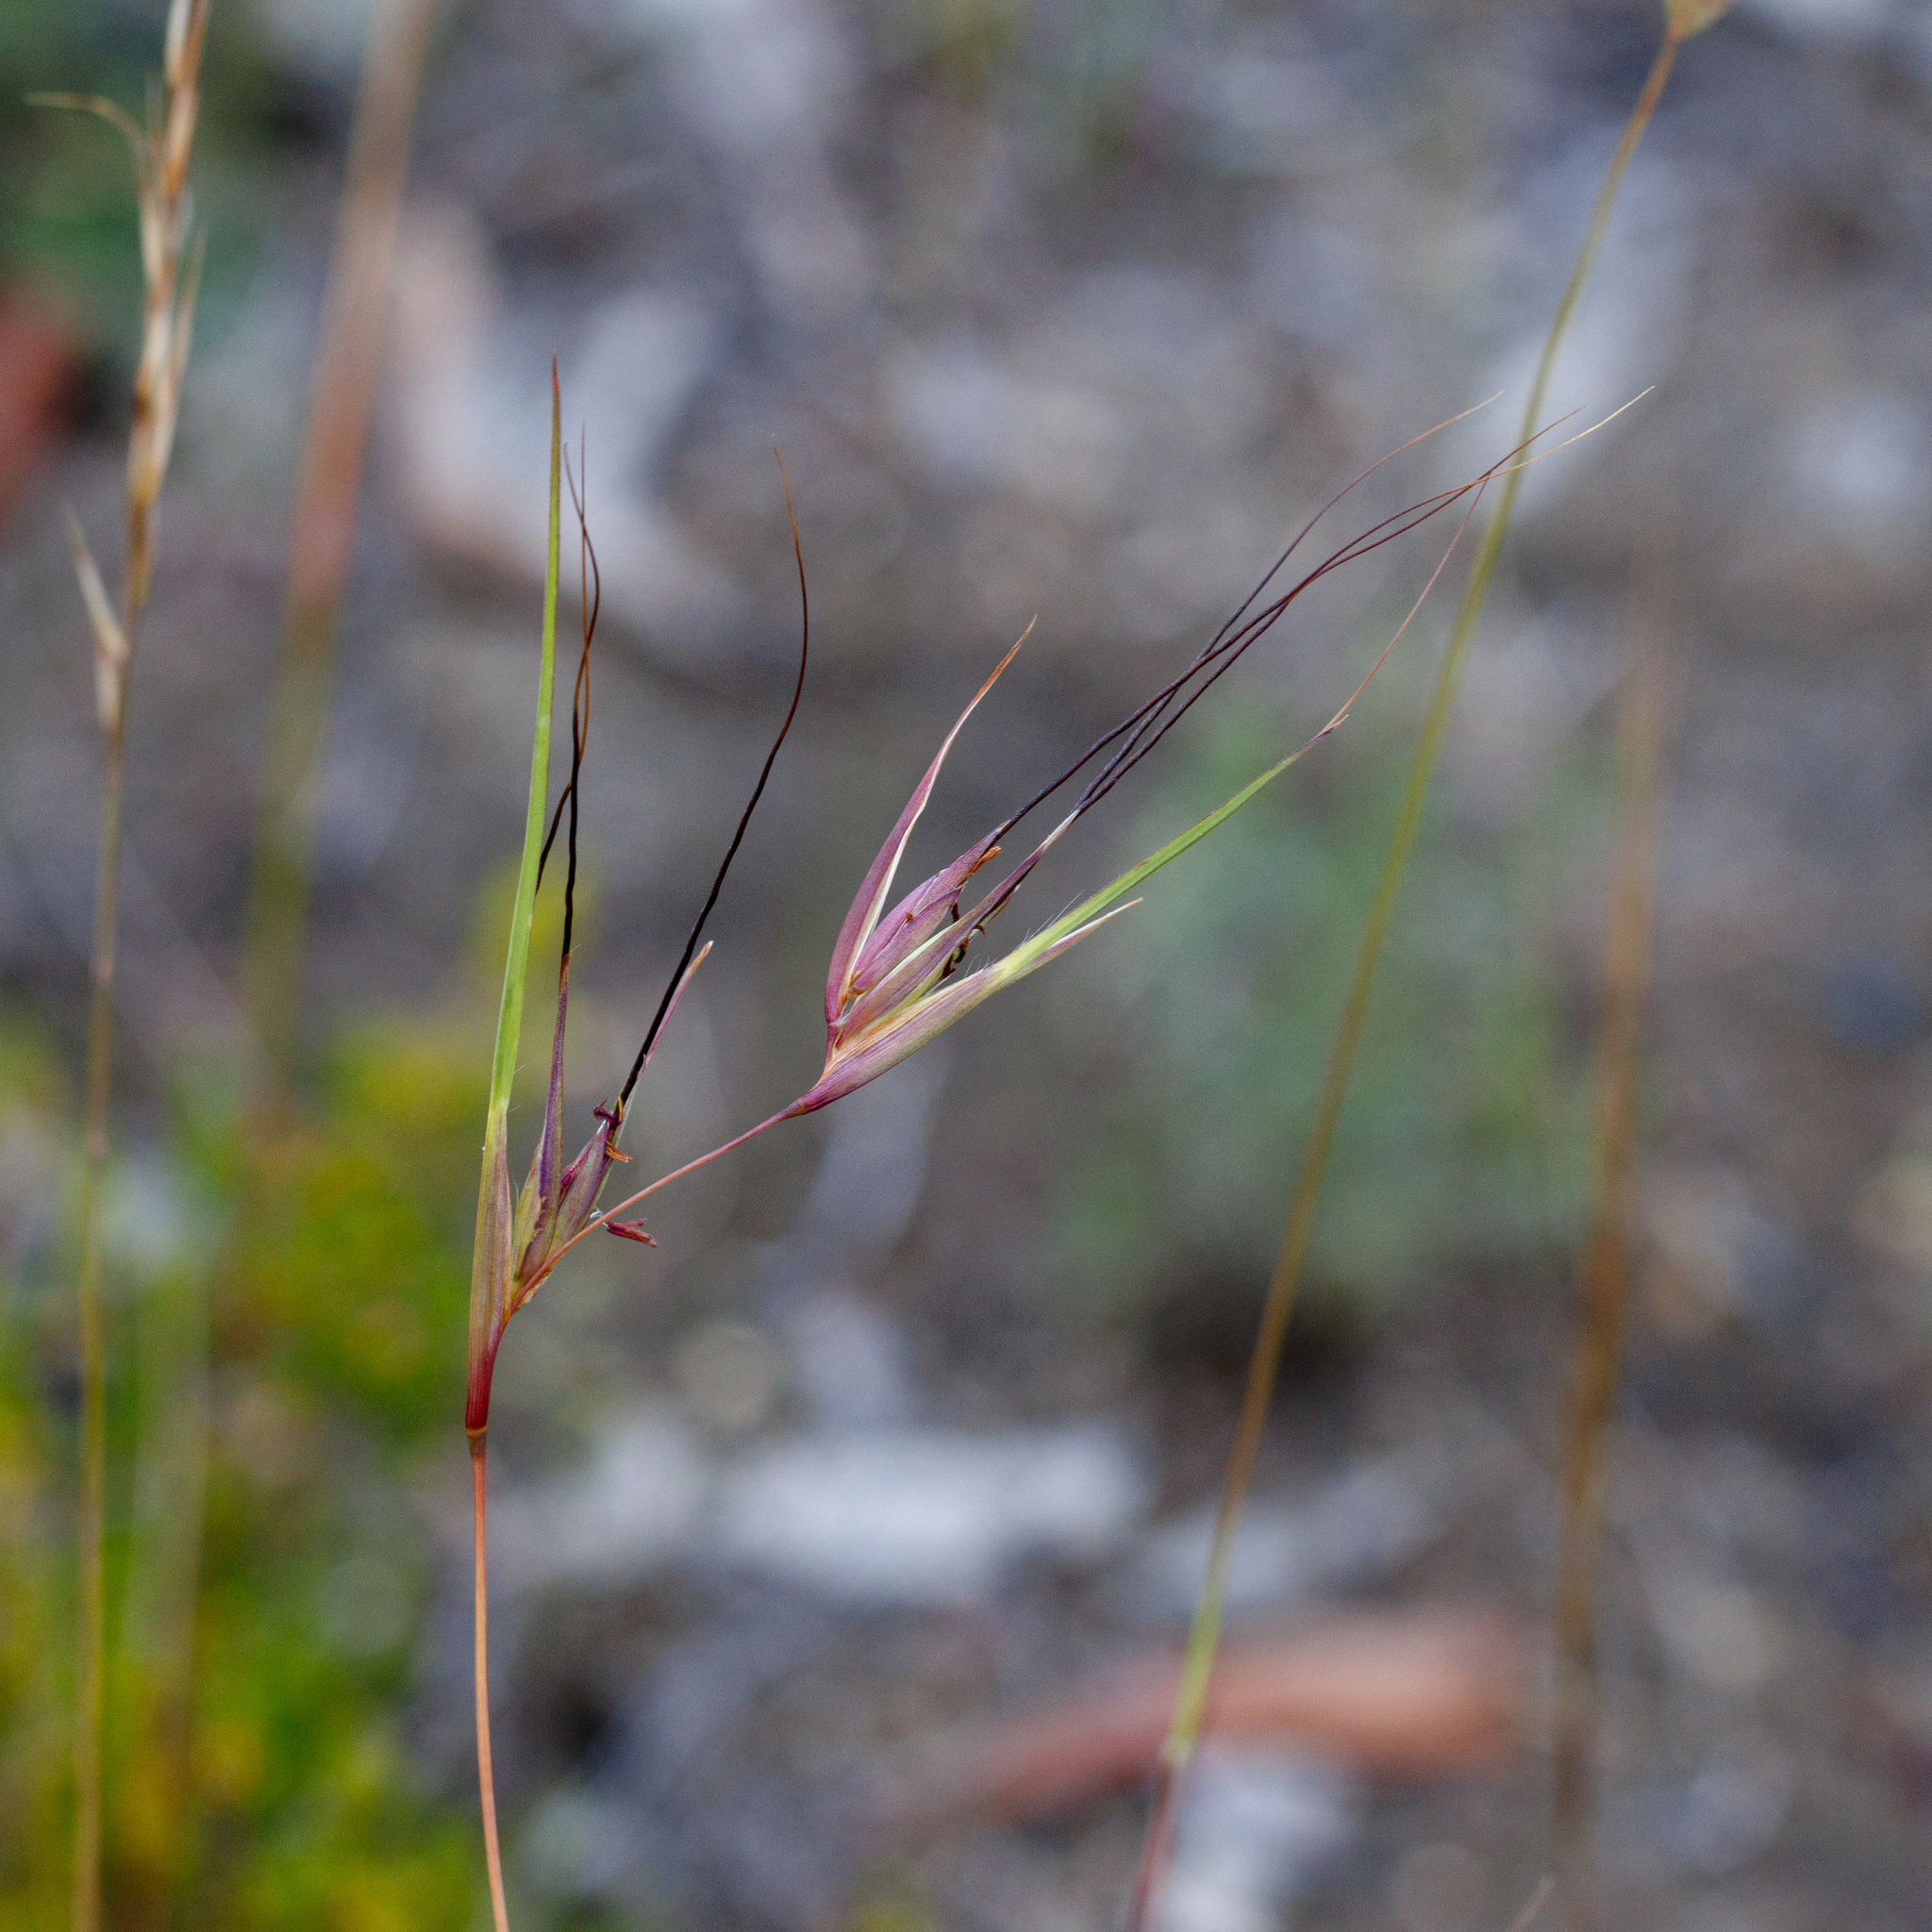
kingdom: Plantae
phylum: Tracheophyta
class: Liliopsida
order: Poales
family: Poaceae
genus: Themeda
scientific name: Themeda triandra
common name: Kangaroo grass
